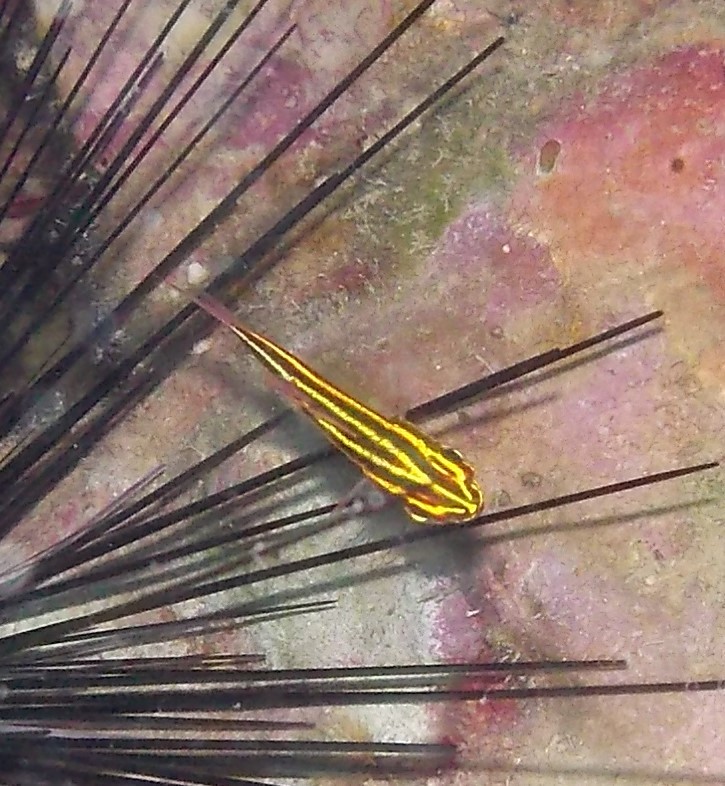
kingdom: Animalia
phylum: Chordata
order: Perciformes
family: Apogonidae
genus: Ostorhinchus
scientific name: Ostorhinchus nigrofasciatus
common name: Blackstripe cardinalfish
